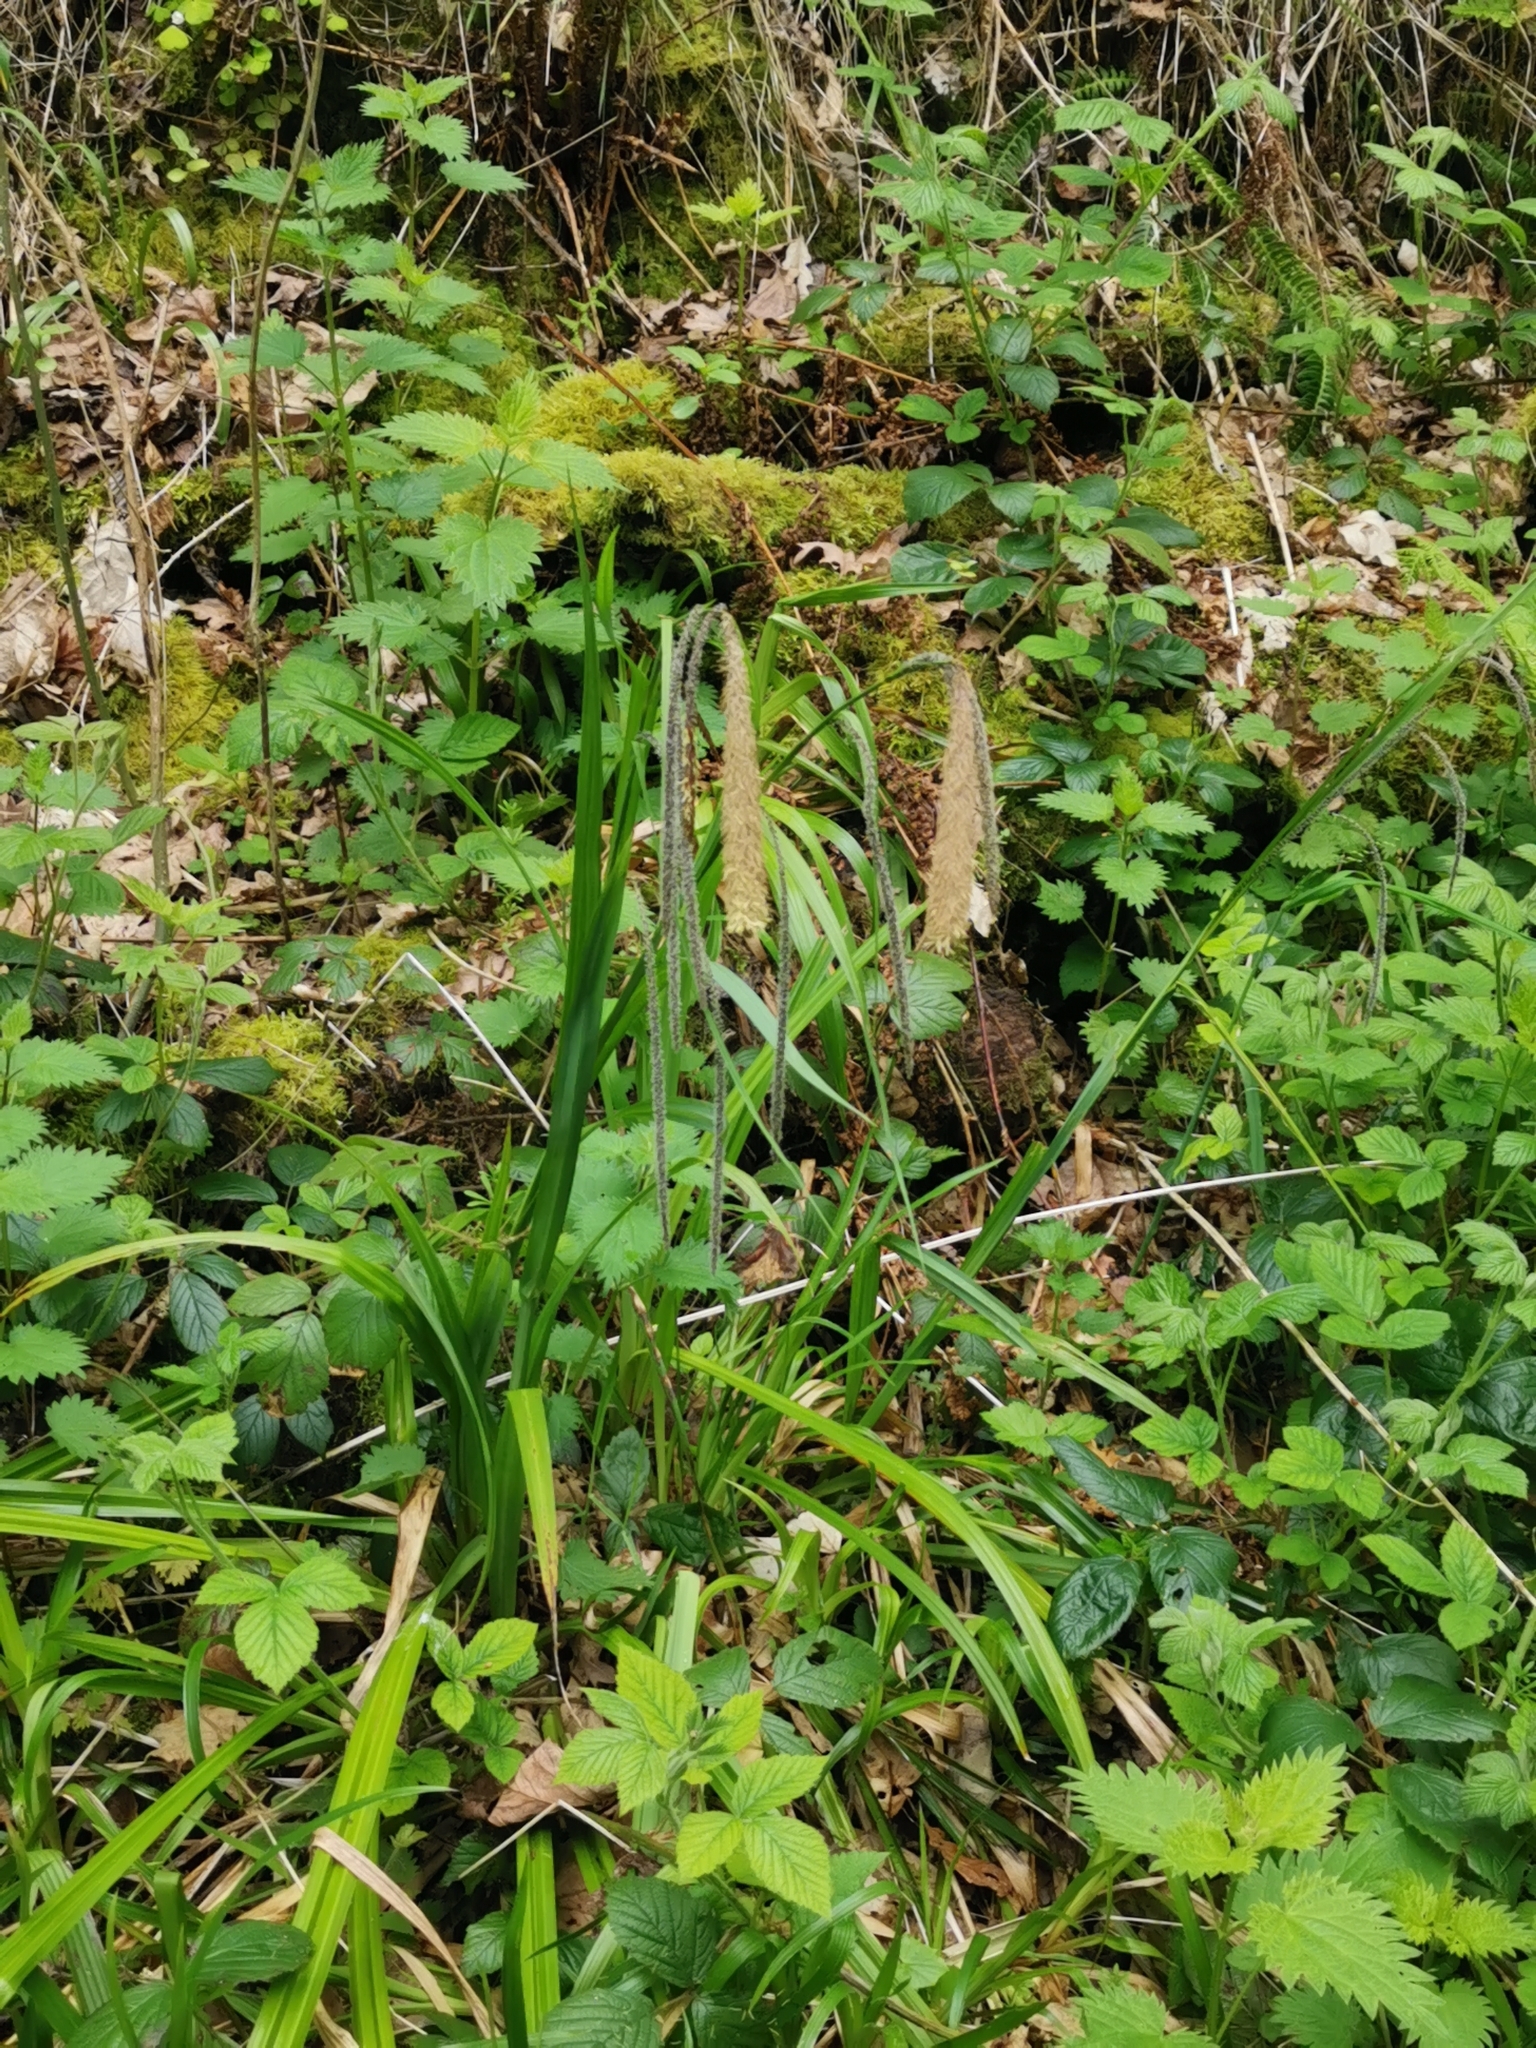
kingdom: Plantae
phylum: Tracheophyta
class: Liliopsida
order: Poales
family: Cyperaceae
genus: Carex
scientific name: Carex pendula
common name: Pendulous sedge
